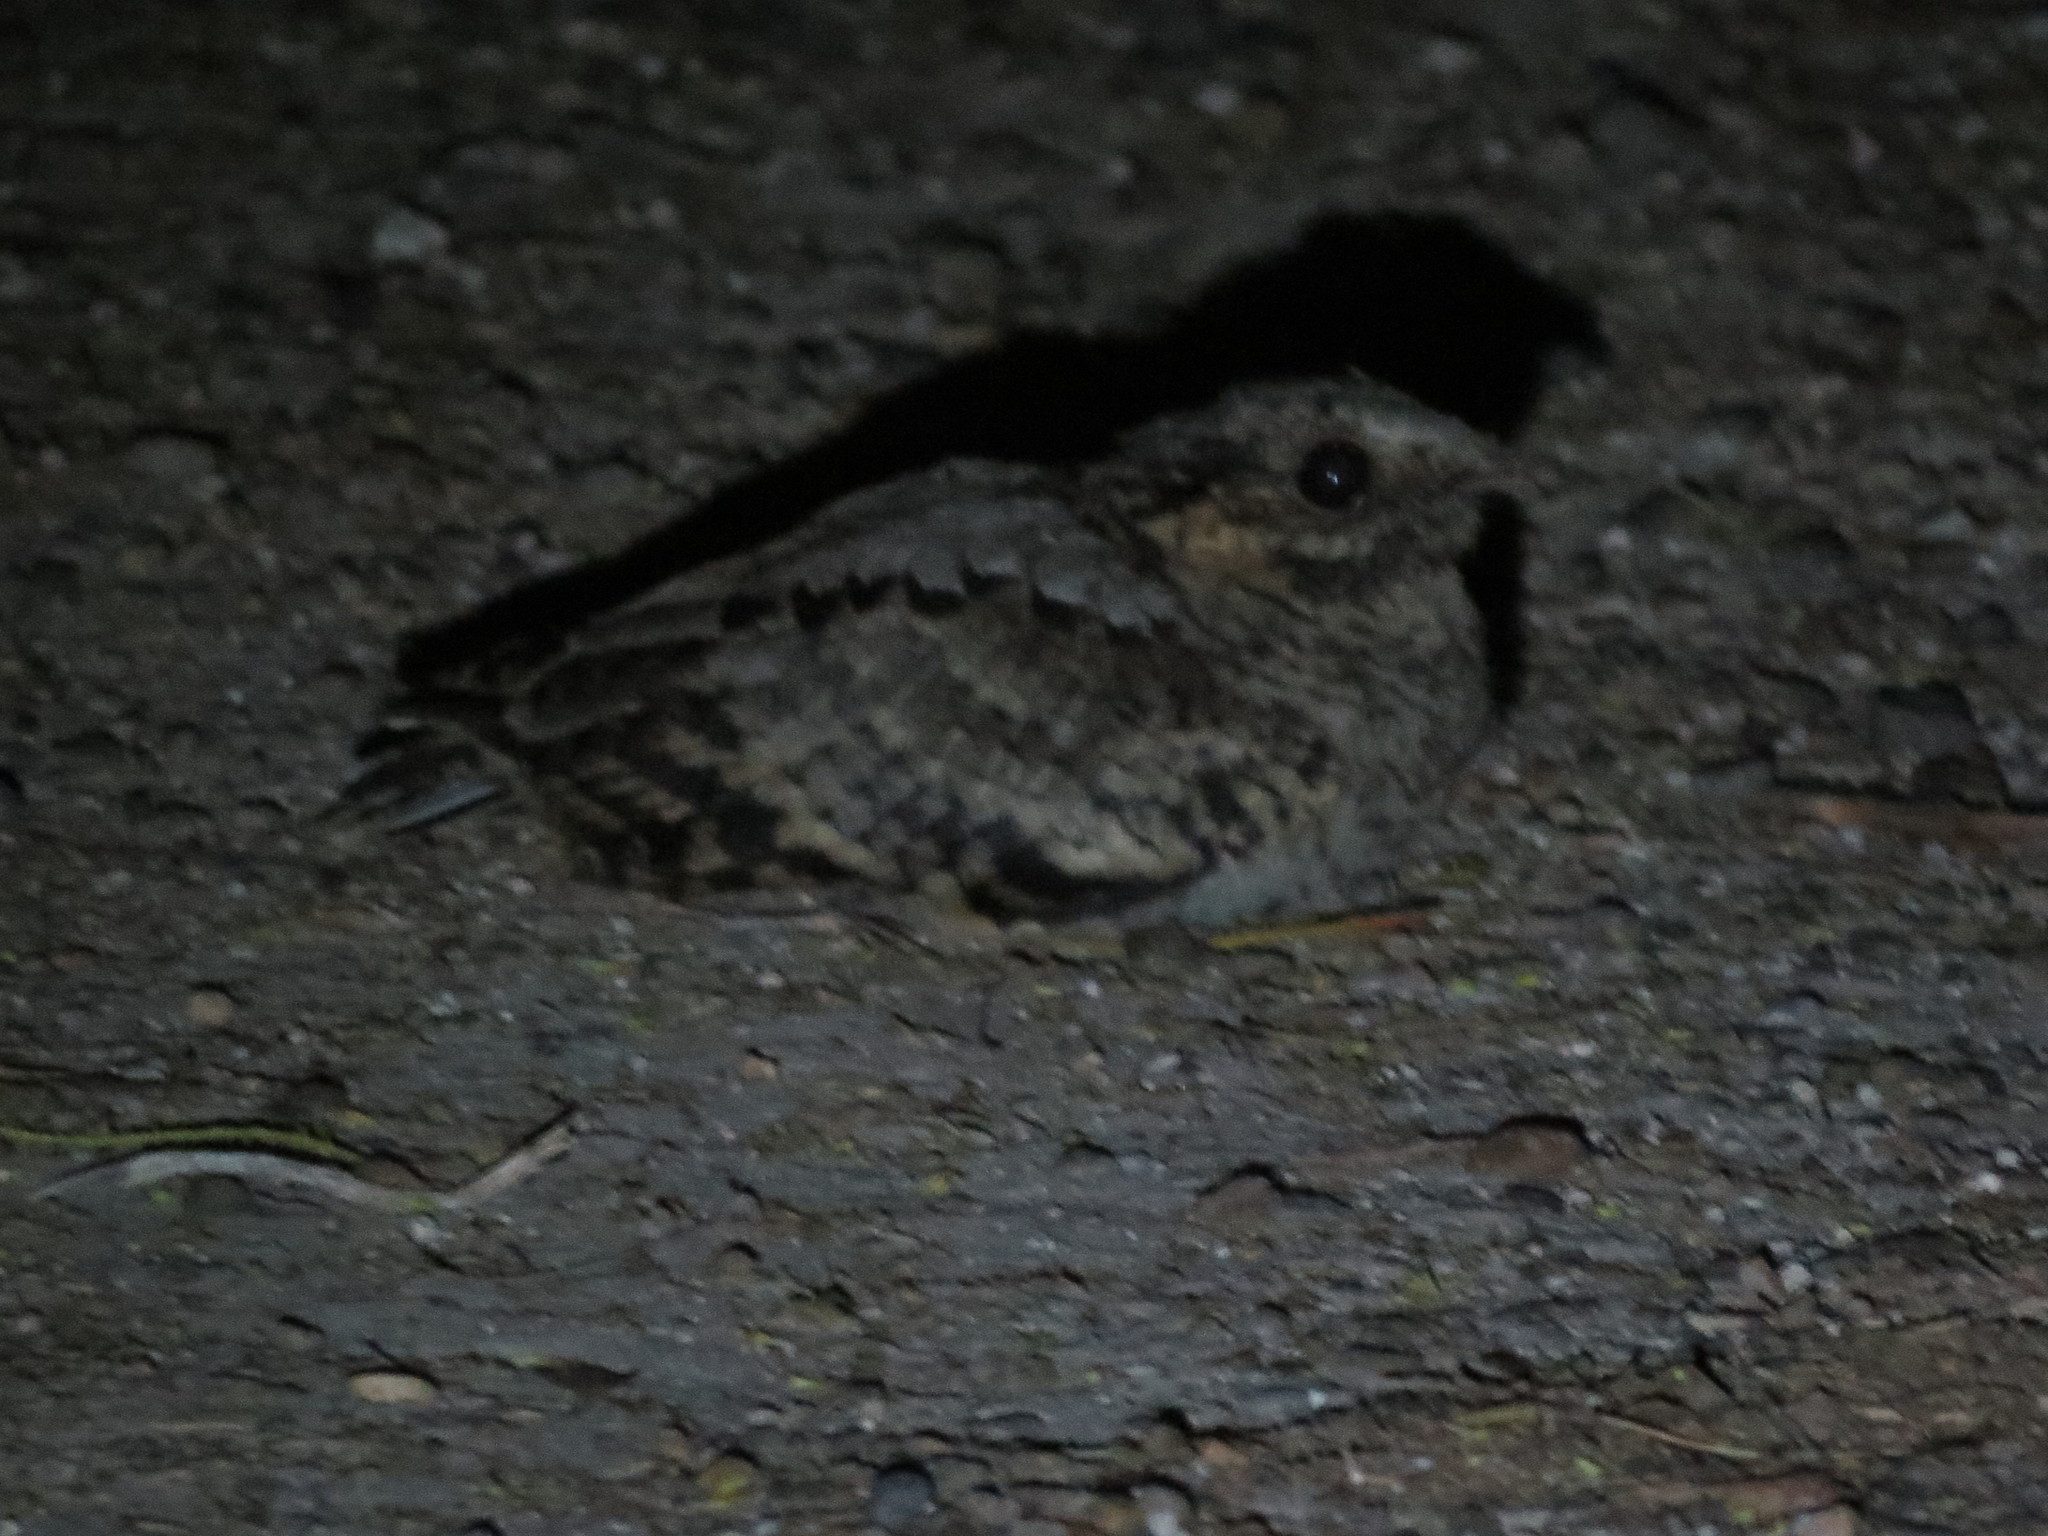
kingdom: Animalia
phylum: Chordata
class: Aves
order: Caprimulgiformes
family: Caprimulgidae
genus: Nyctidromus
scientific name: Nyctidromus albicollis
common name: Pauraque
